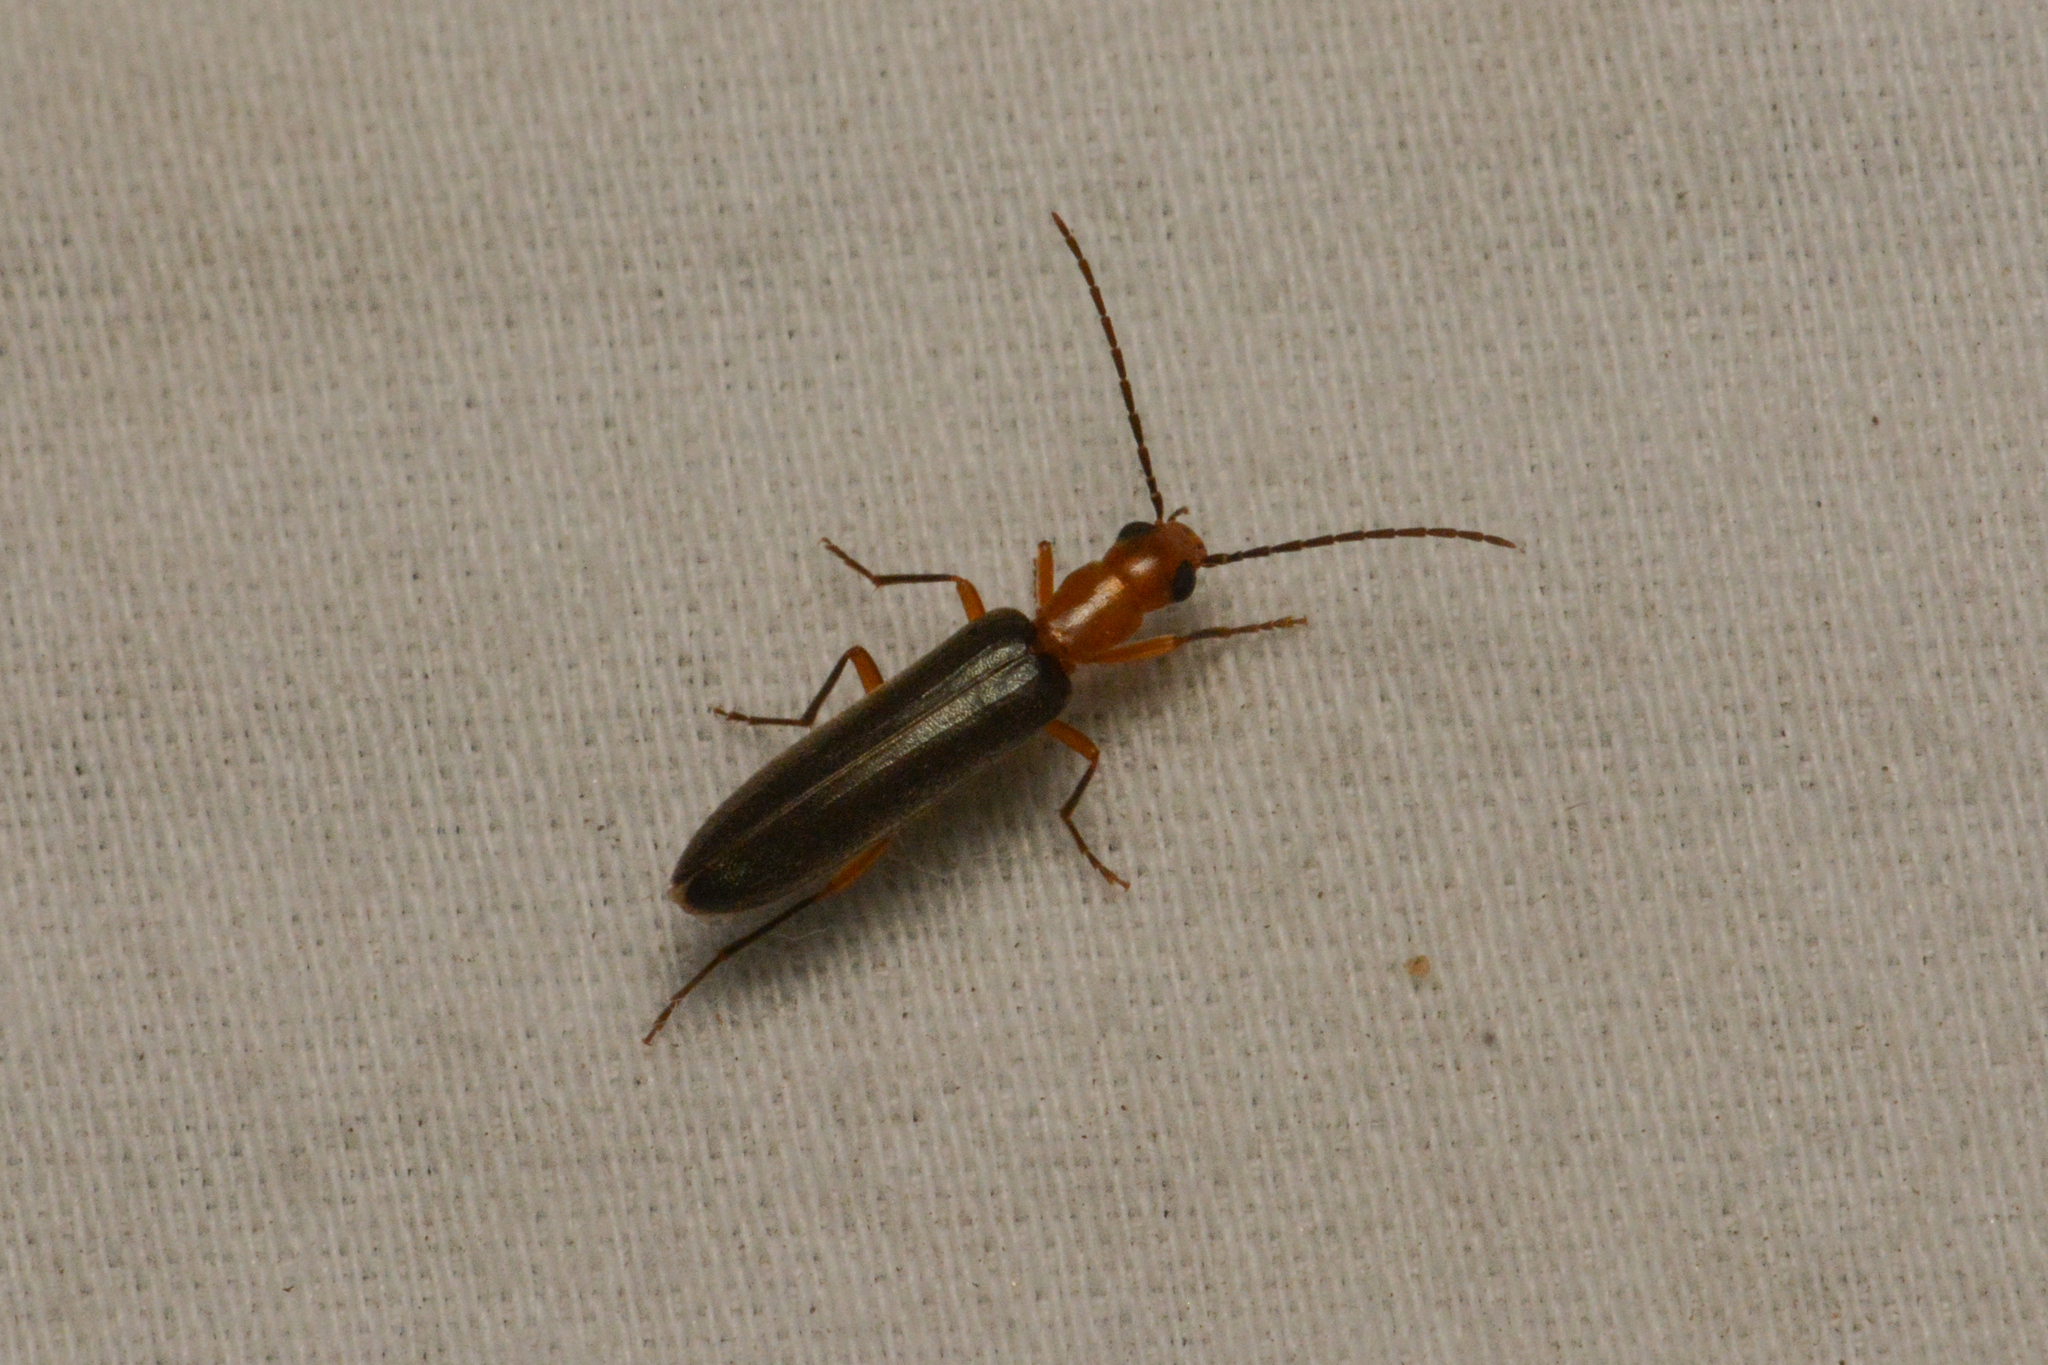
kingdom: Animalia
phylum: Arthropoda
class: Insecta
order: Coleoptera
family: Oedemeridae
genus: Xanthochroina
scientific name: Xanthochroina bicolor
